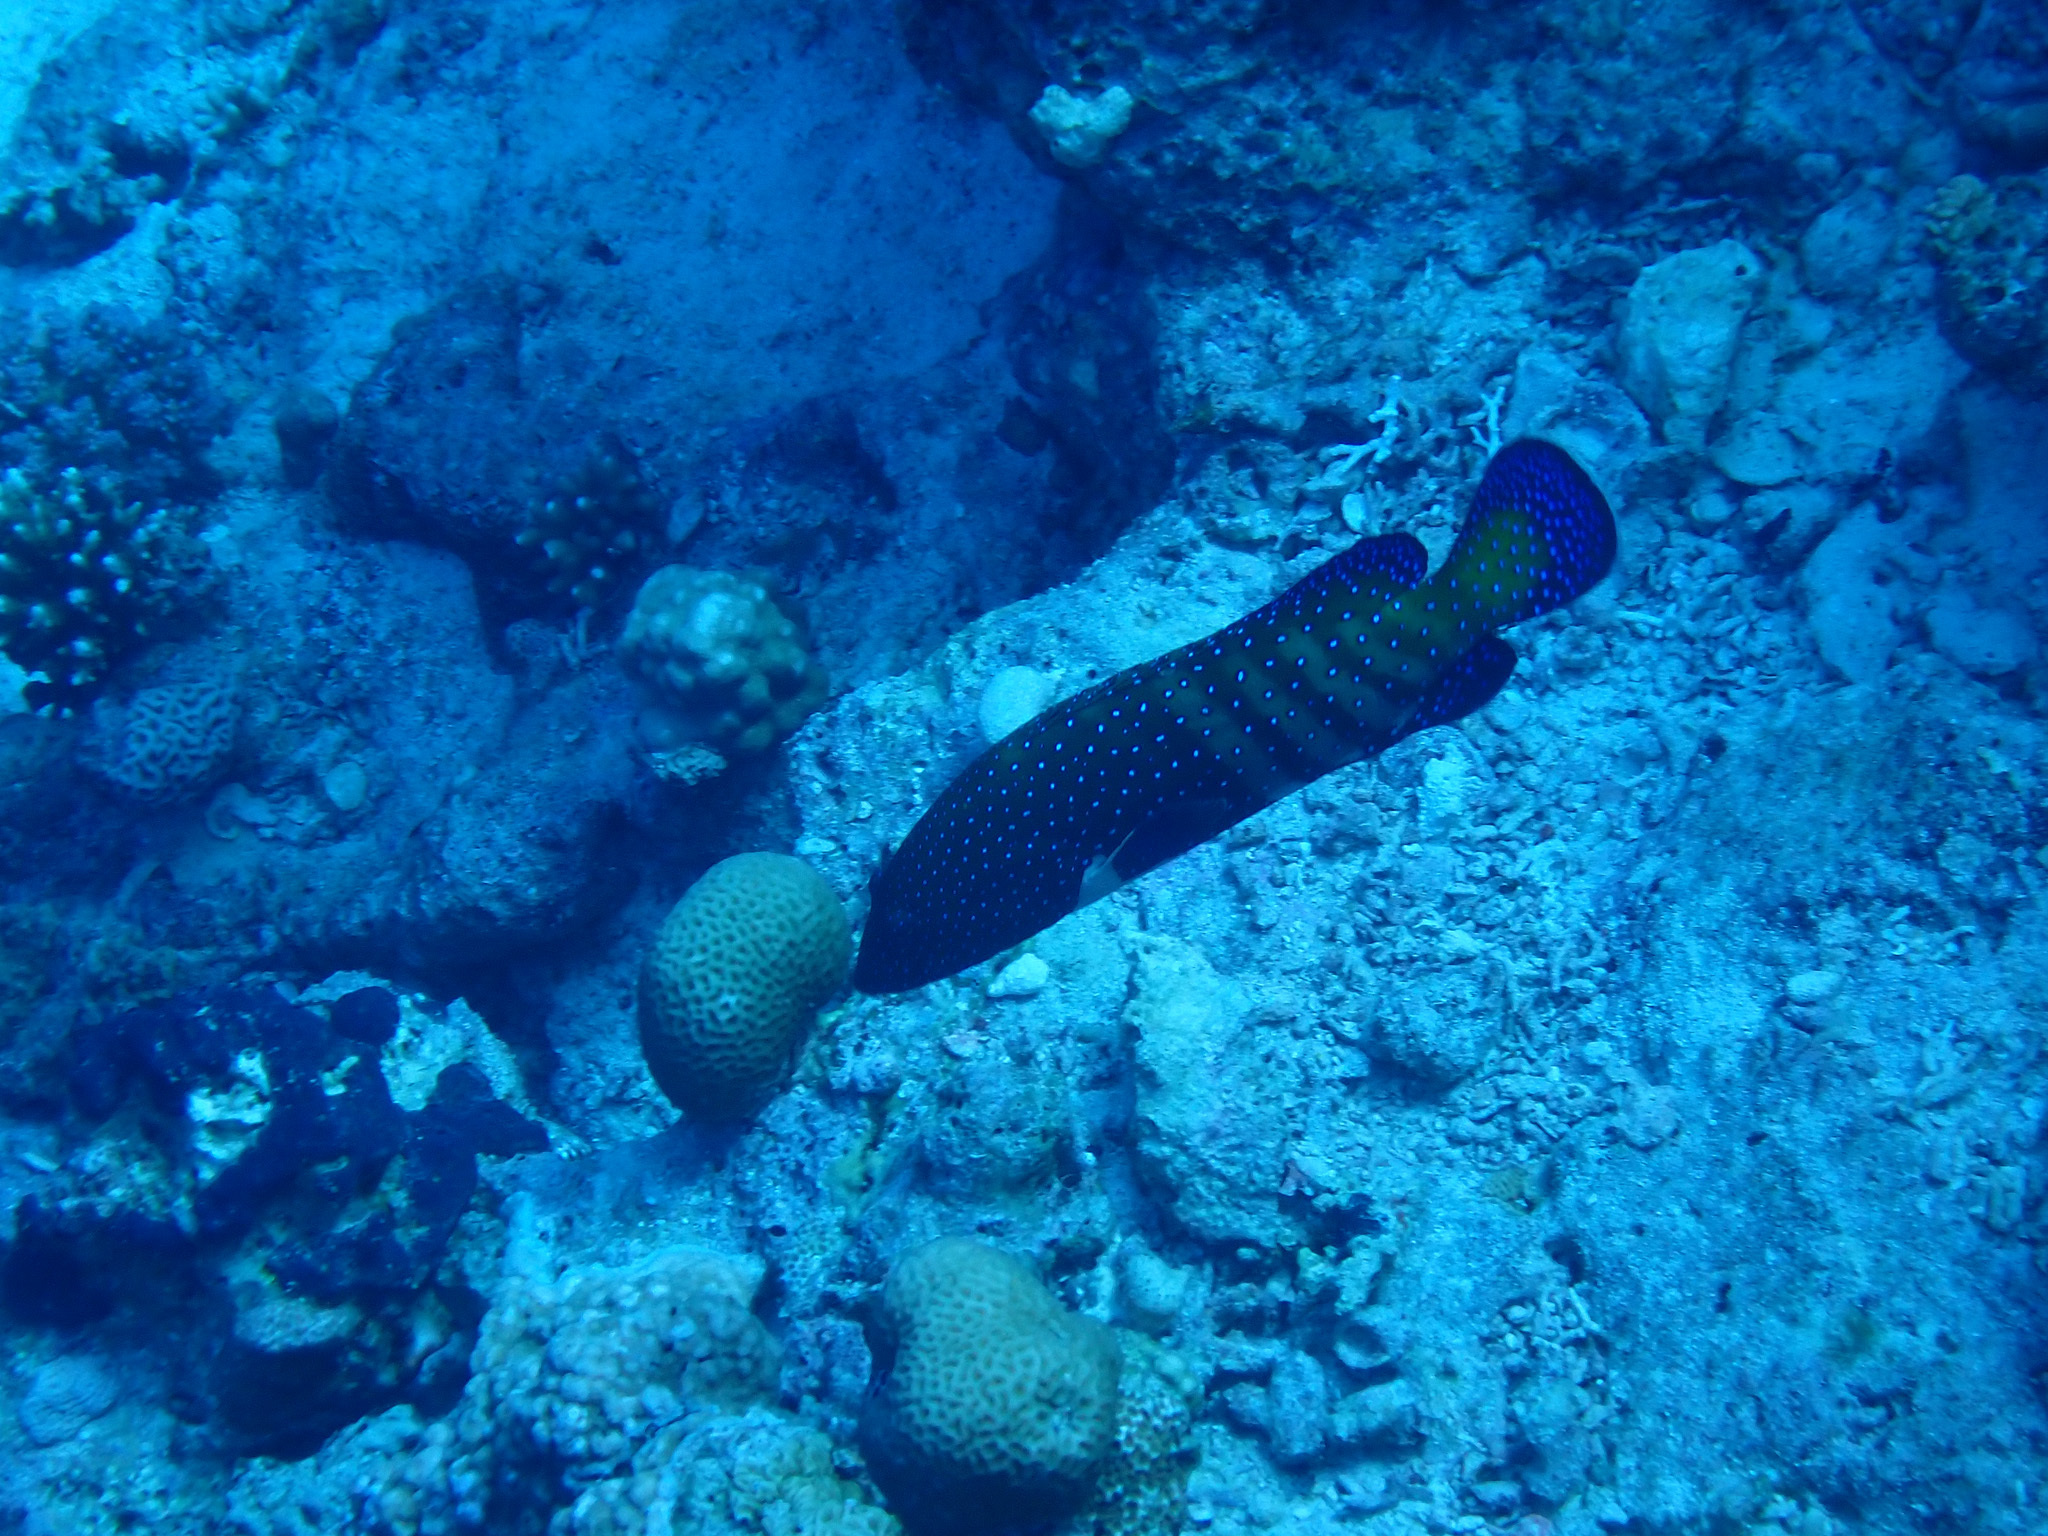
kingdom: Animalia
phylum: Chordata
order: Perciformes
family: Serranidae
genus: Cephalopholis
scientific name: Cephalopholis argus
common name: Peacock grouper
